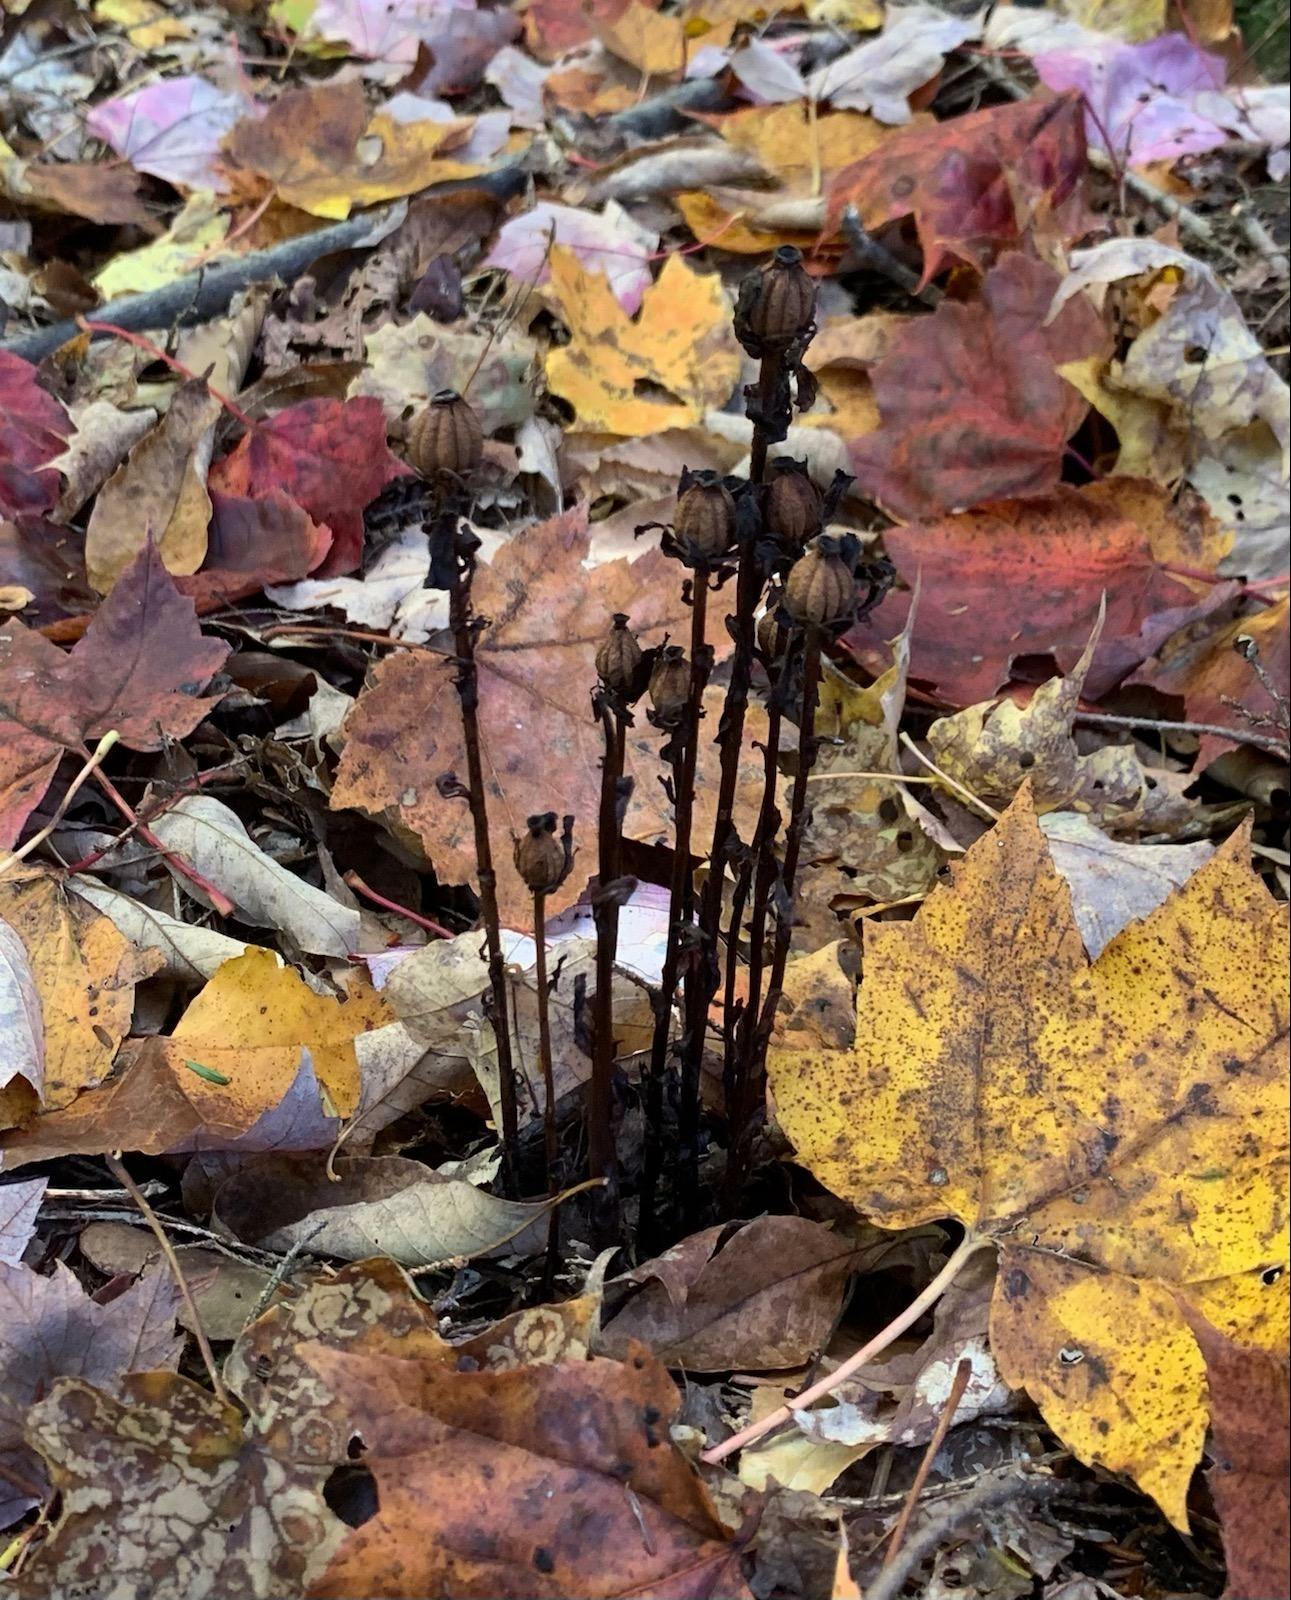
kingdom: Plantae
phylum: Tracheophyta
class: Magnoliopsida
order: Ericales
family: Ericaceae
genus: Monotropa
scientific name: Monotropa uniflora
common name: Convulsion root
